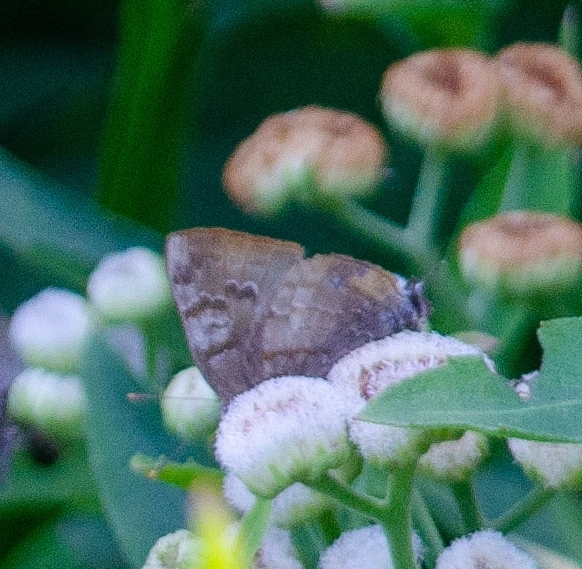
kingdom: Animalia
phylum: Arthropoda
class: Insecta
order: Lepidoptera
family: Lycaenidae
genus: Rekoa
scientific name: Rekoa palegon
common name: Gold-bordered hairstreak
